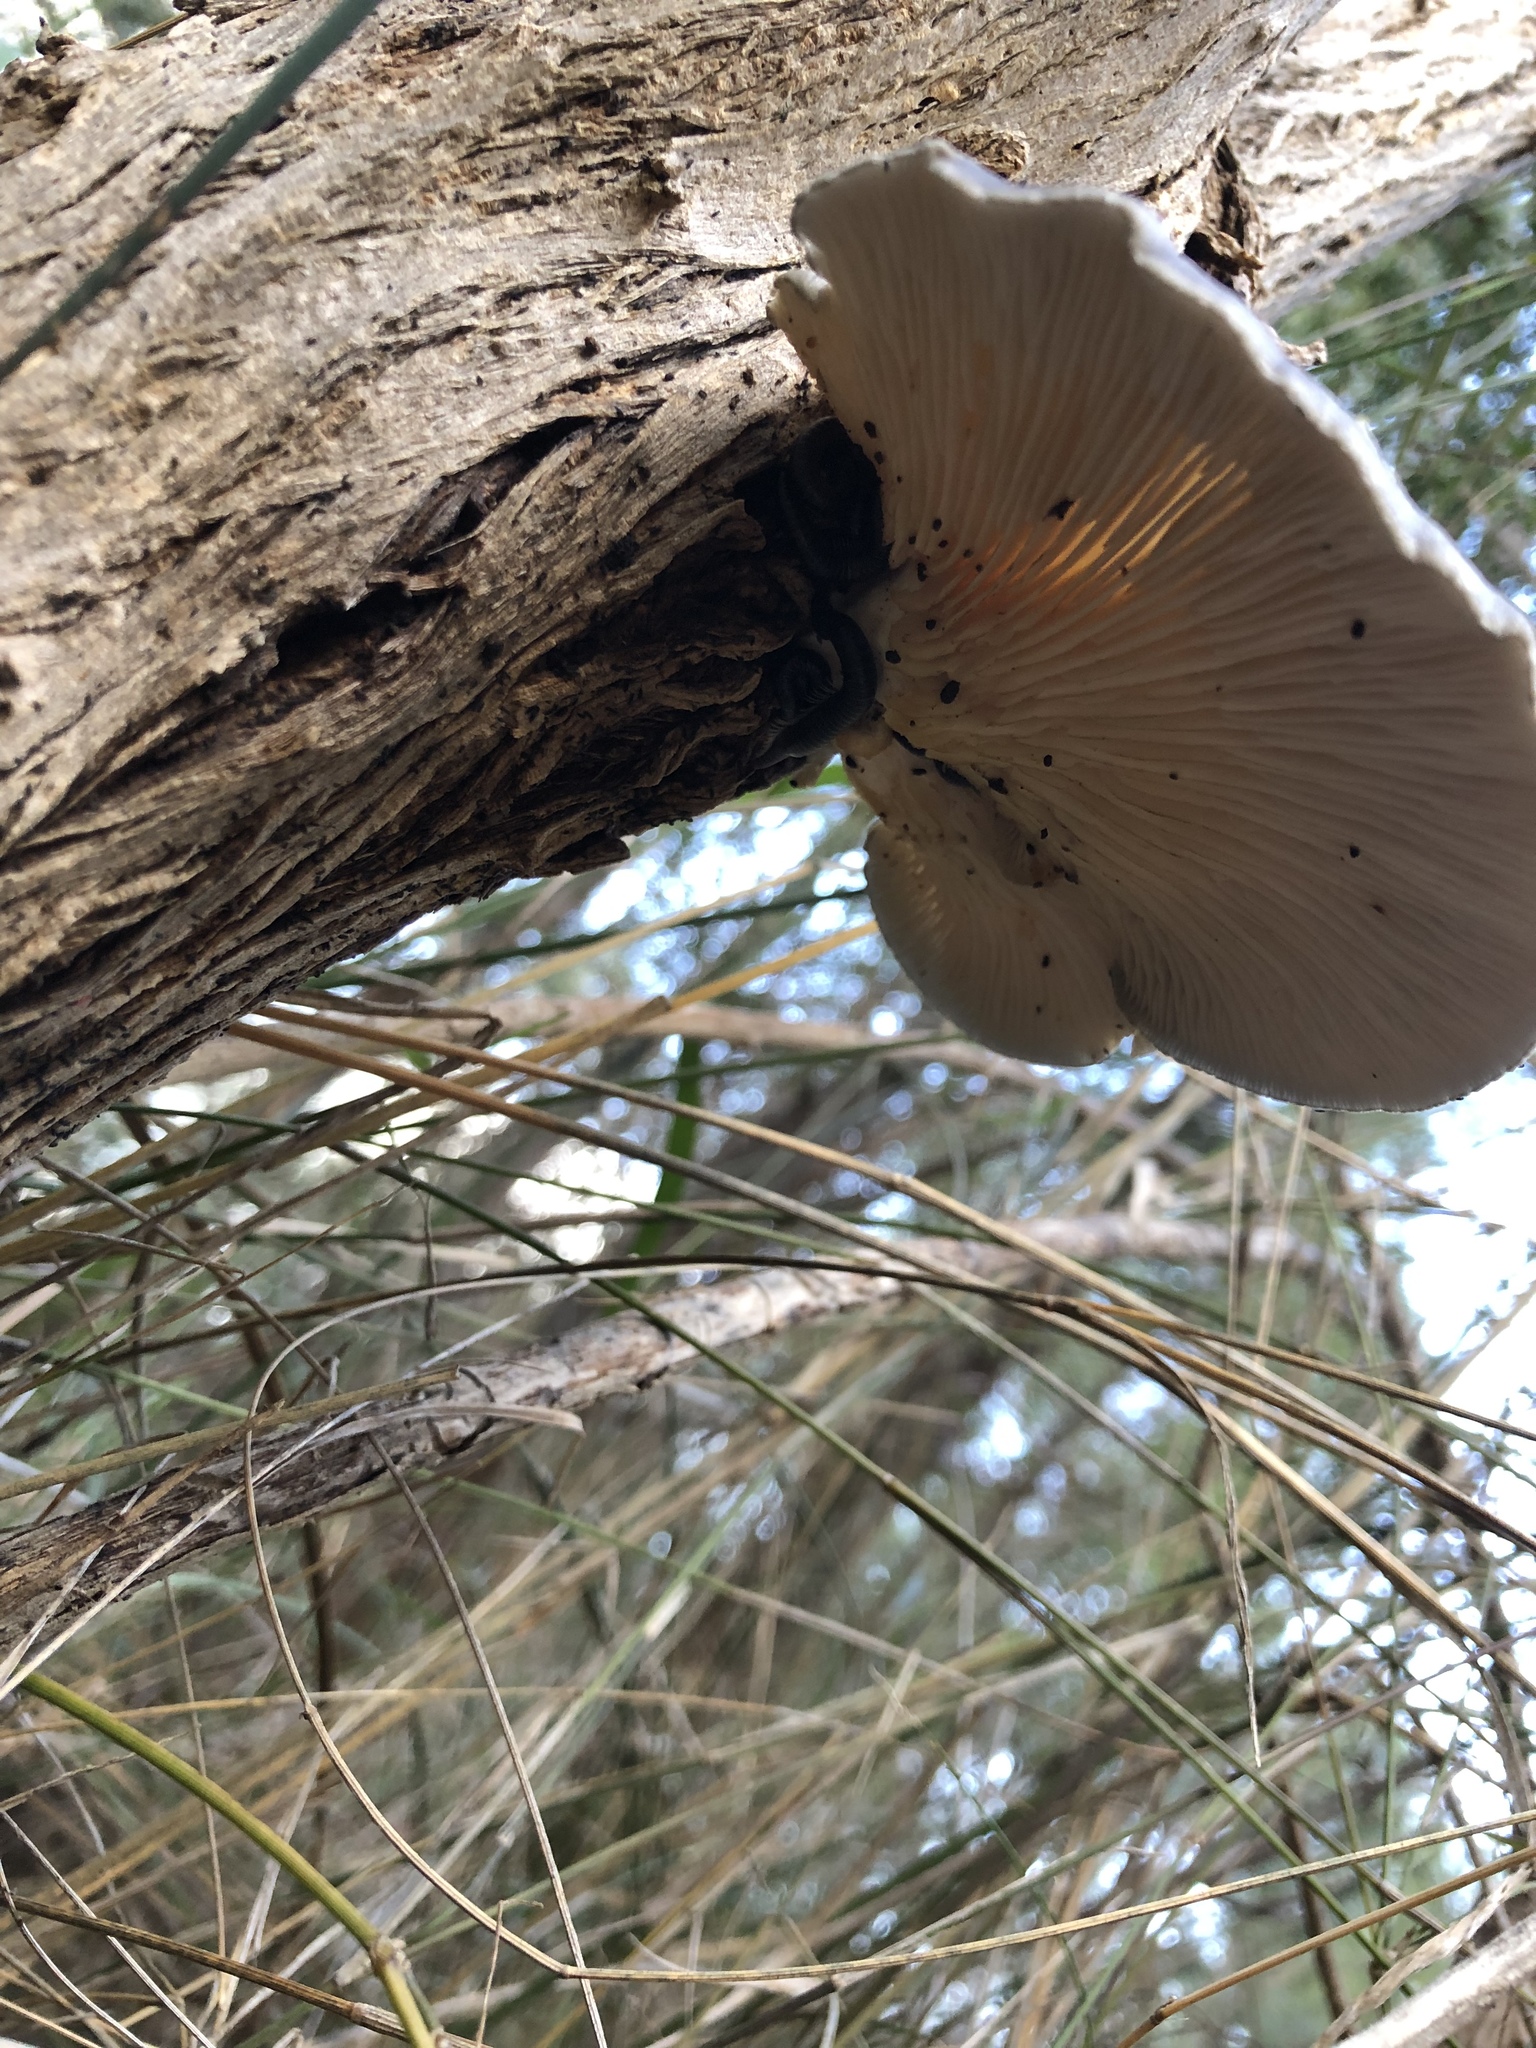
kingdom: Fungi
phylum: Basidiomycota
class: Agaricomycetes
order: Agaricales
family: Omphalotaceae
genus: Omphalotus
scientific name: Omphalotus nidiformis
